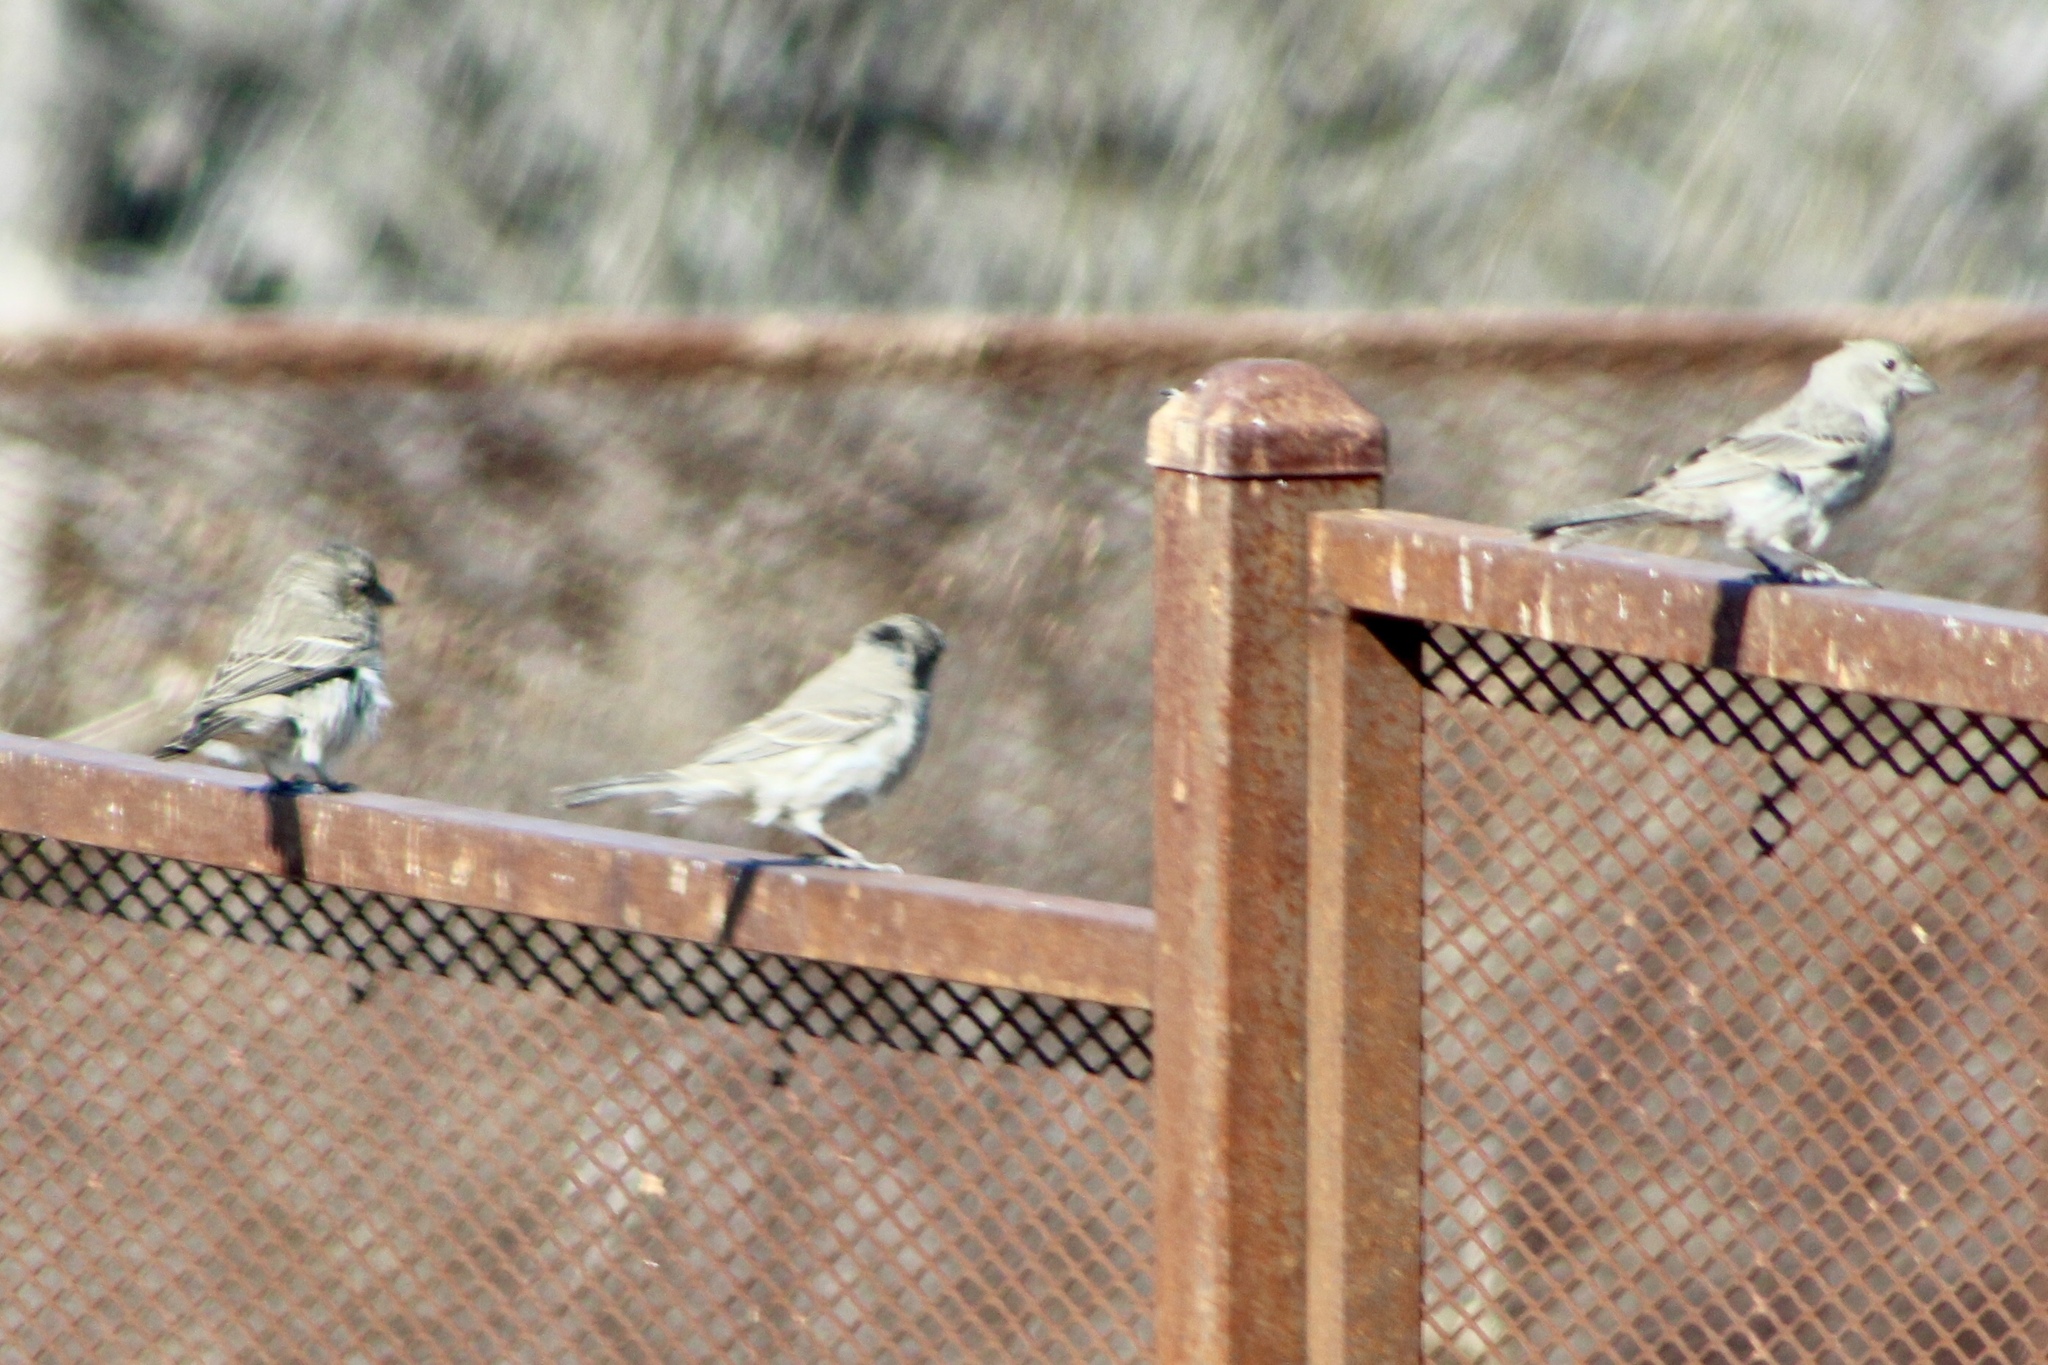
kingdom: Animalia
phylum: Chordata
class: Aves
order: Passeriformes
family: Fringillidae
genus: Haemorhous
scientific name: Haemorhous mexicanus
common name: House finch
